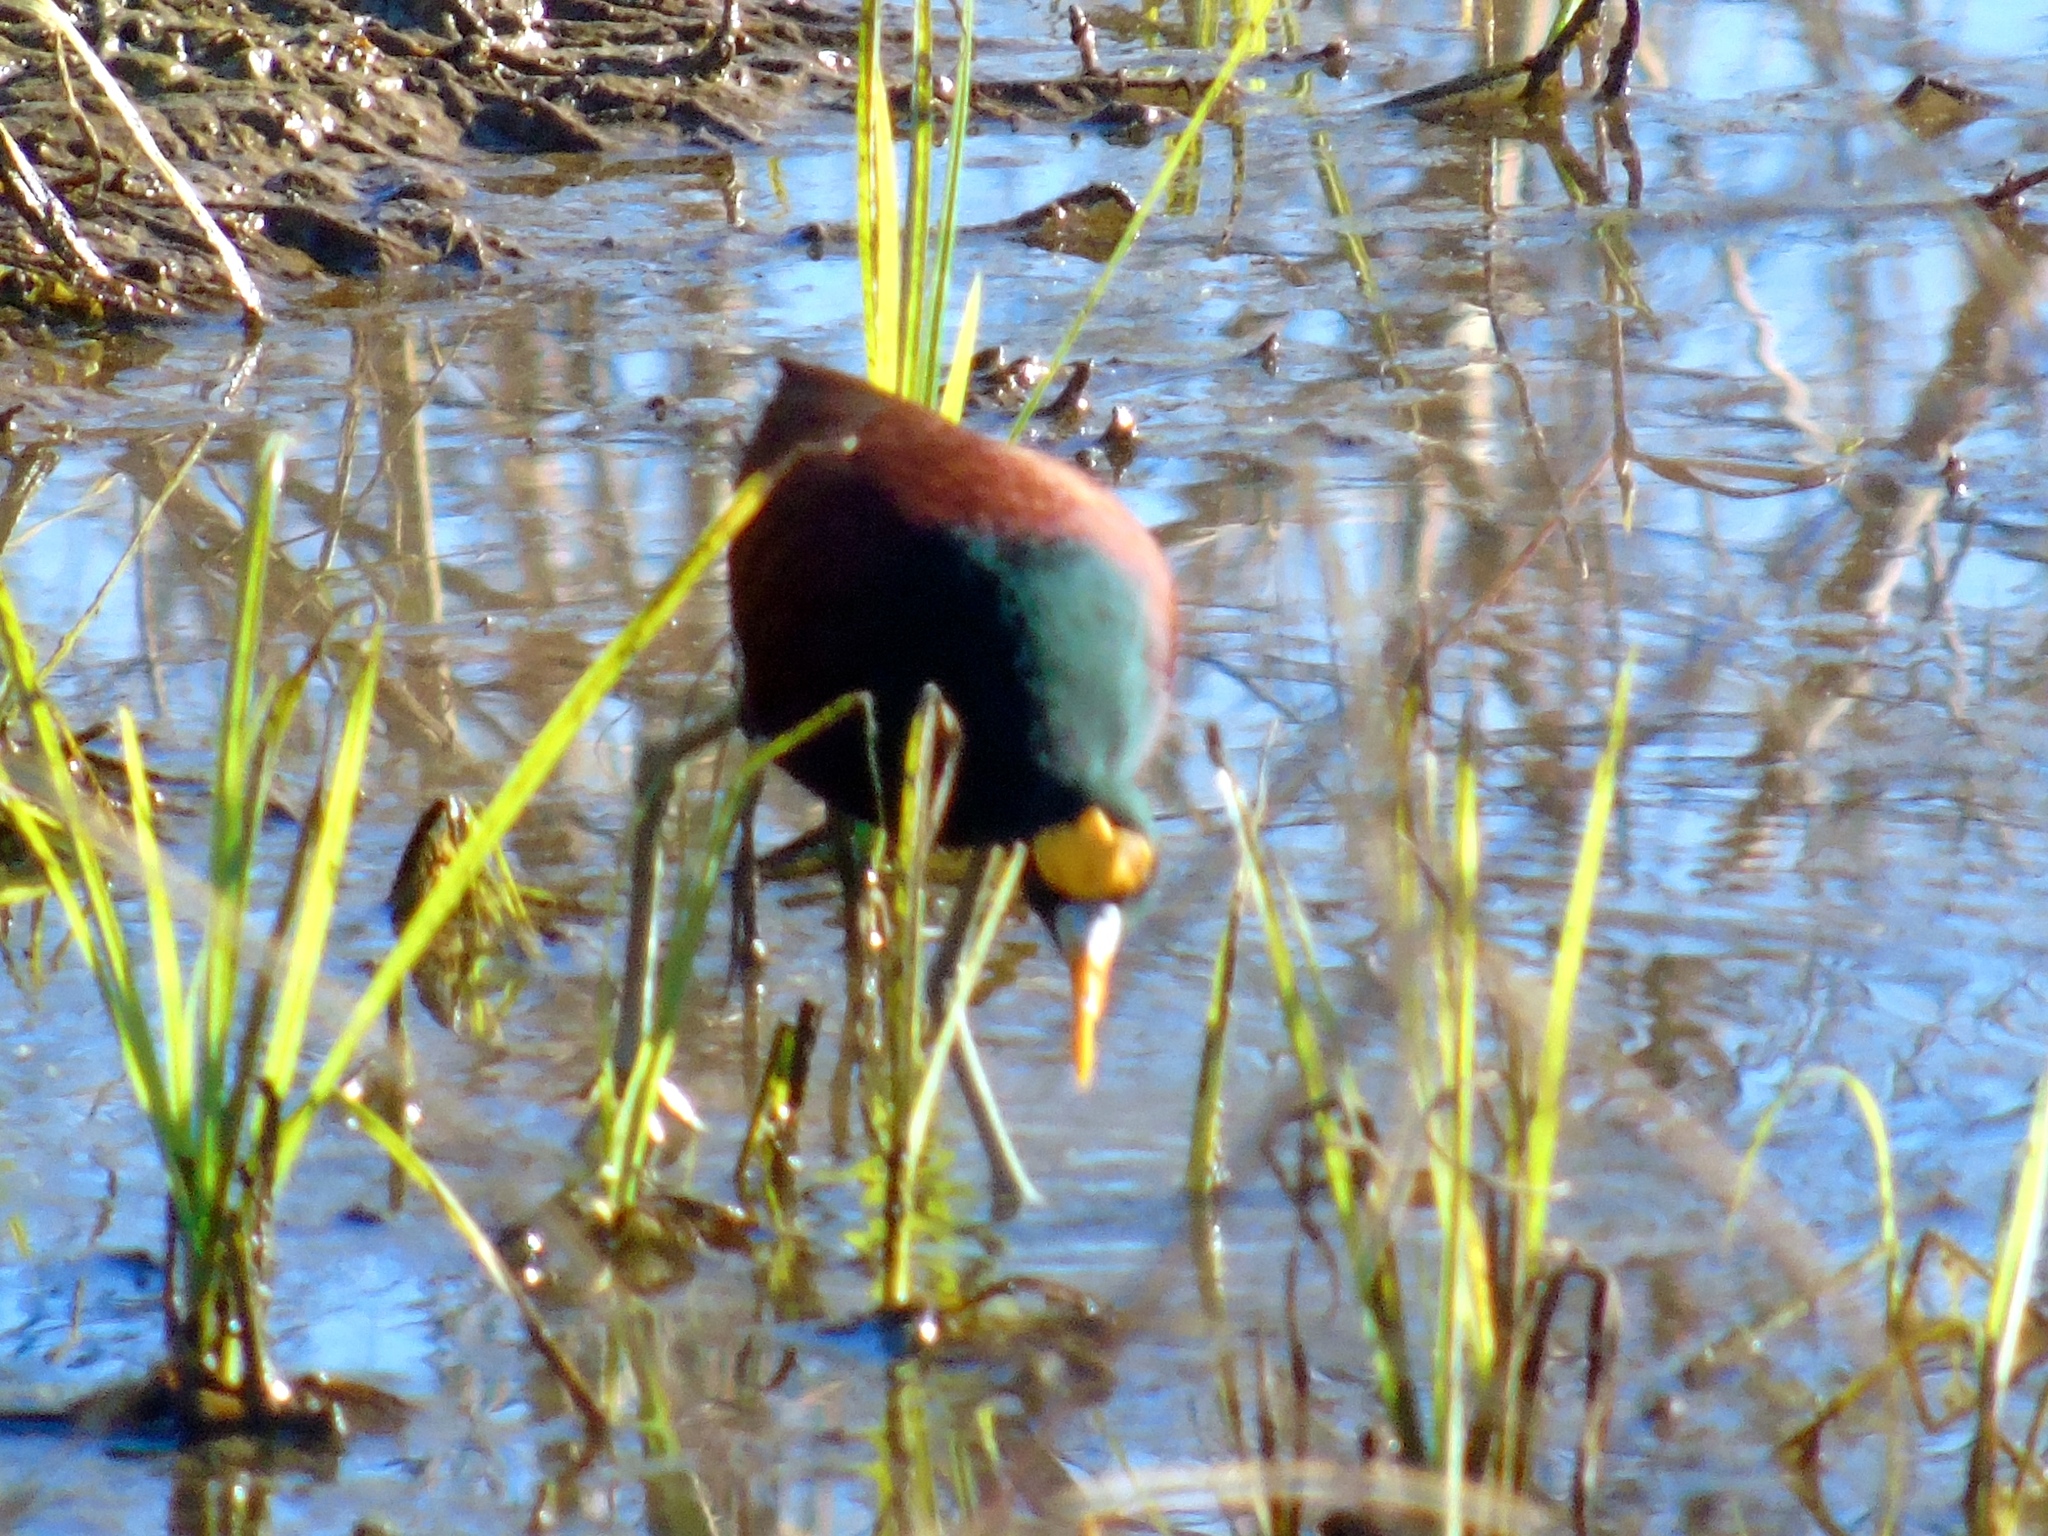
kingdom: Animalia
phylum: Chordata
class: Aves
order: Charadriiformes
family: Jacanidae
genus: Jacana
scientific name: Jacana spinosa
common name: Northern jacana
